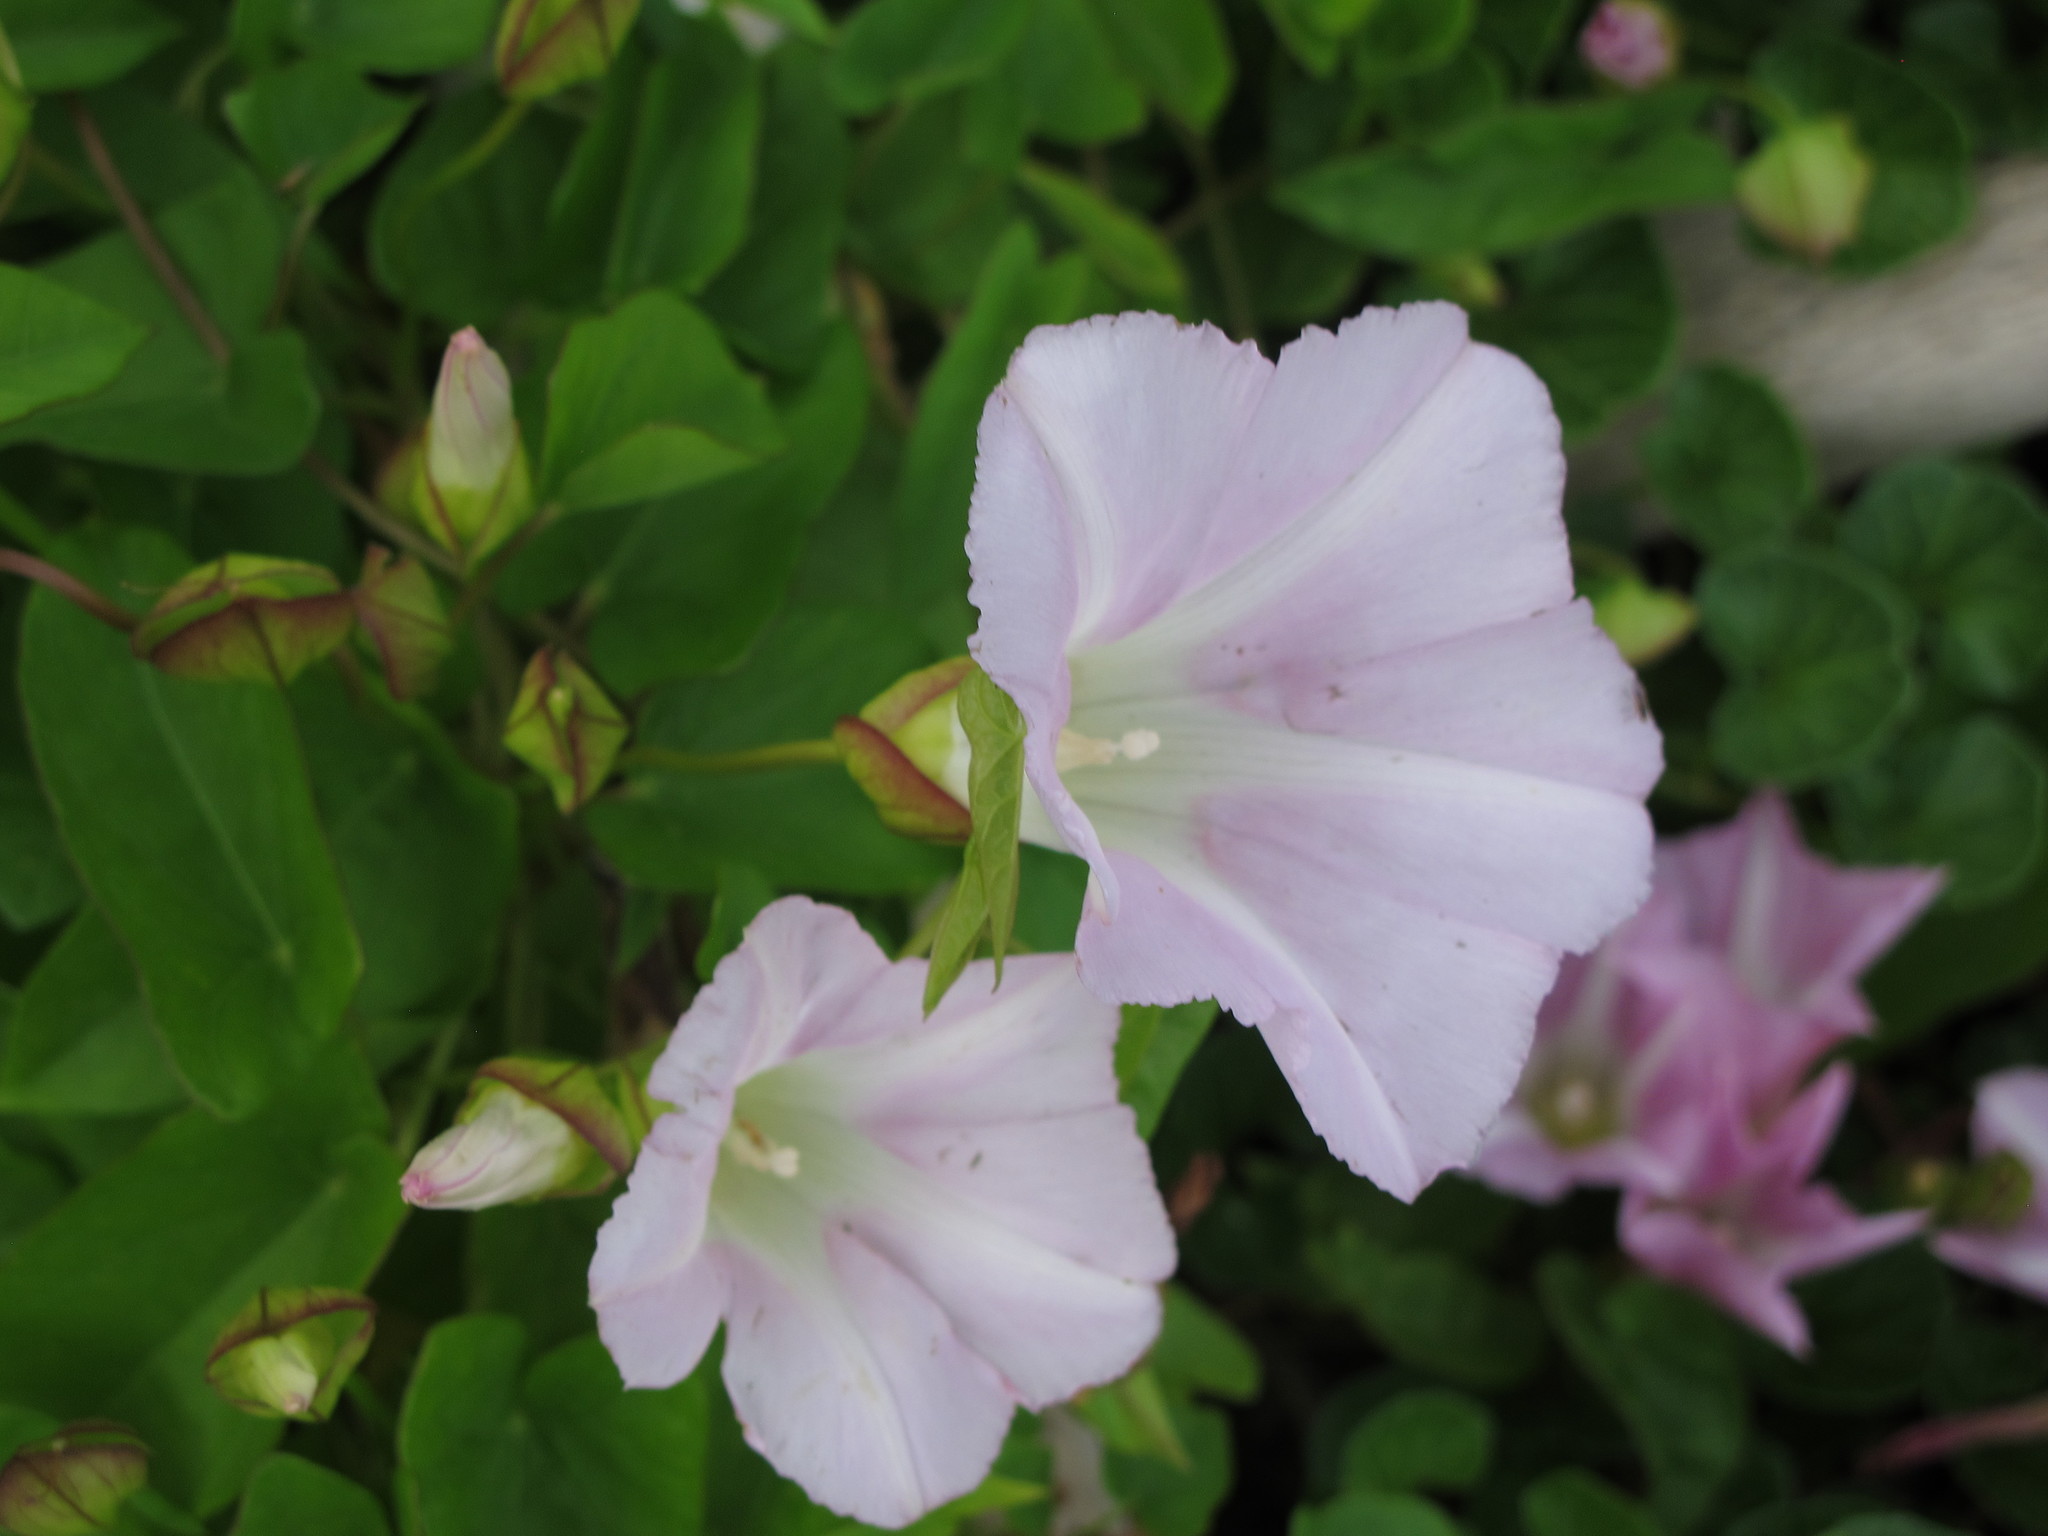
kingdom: Plantae
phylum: Tracheophyta
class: Magnoliopsida
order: Solanales
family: Convolvulaceae
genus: Calystegia
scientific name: Calystegia sepium
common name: Hedge bindweed
